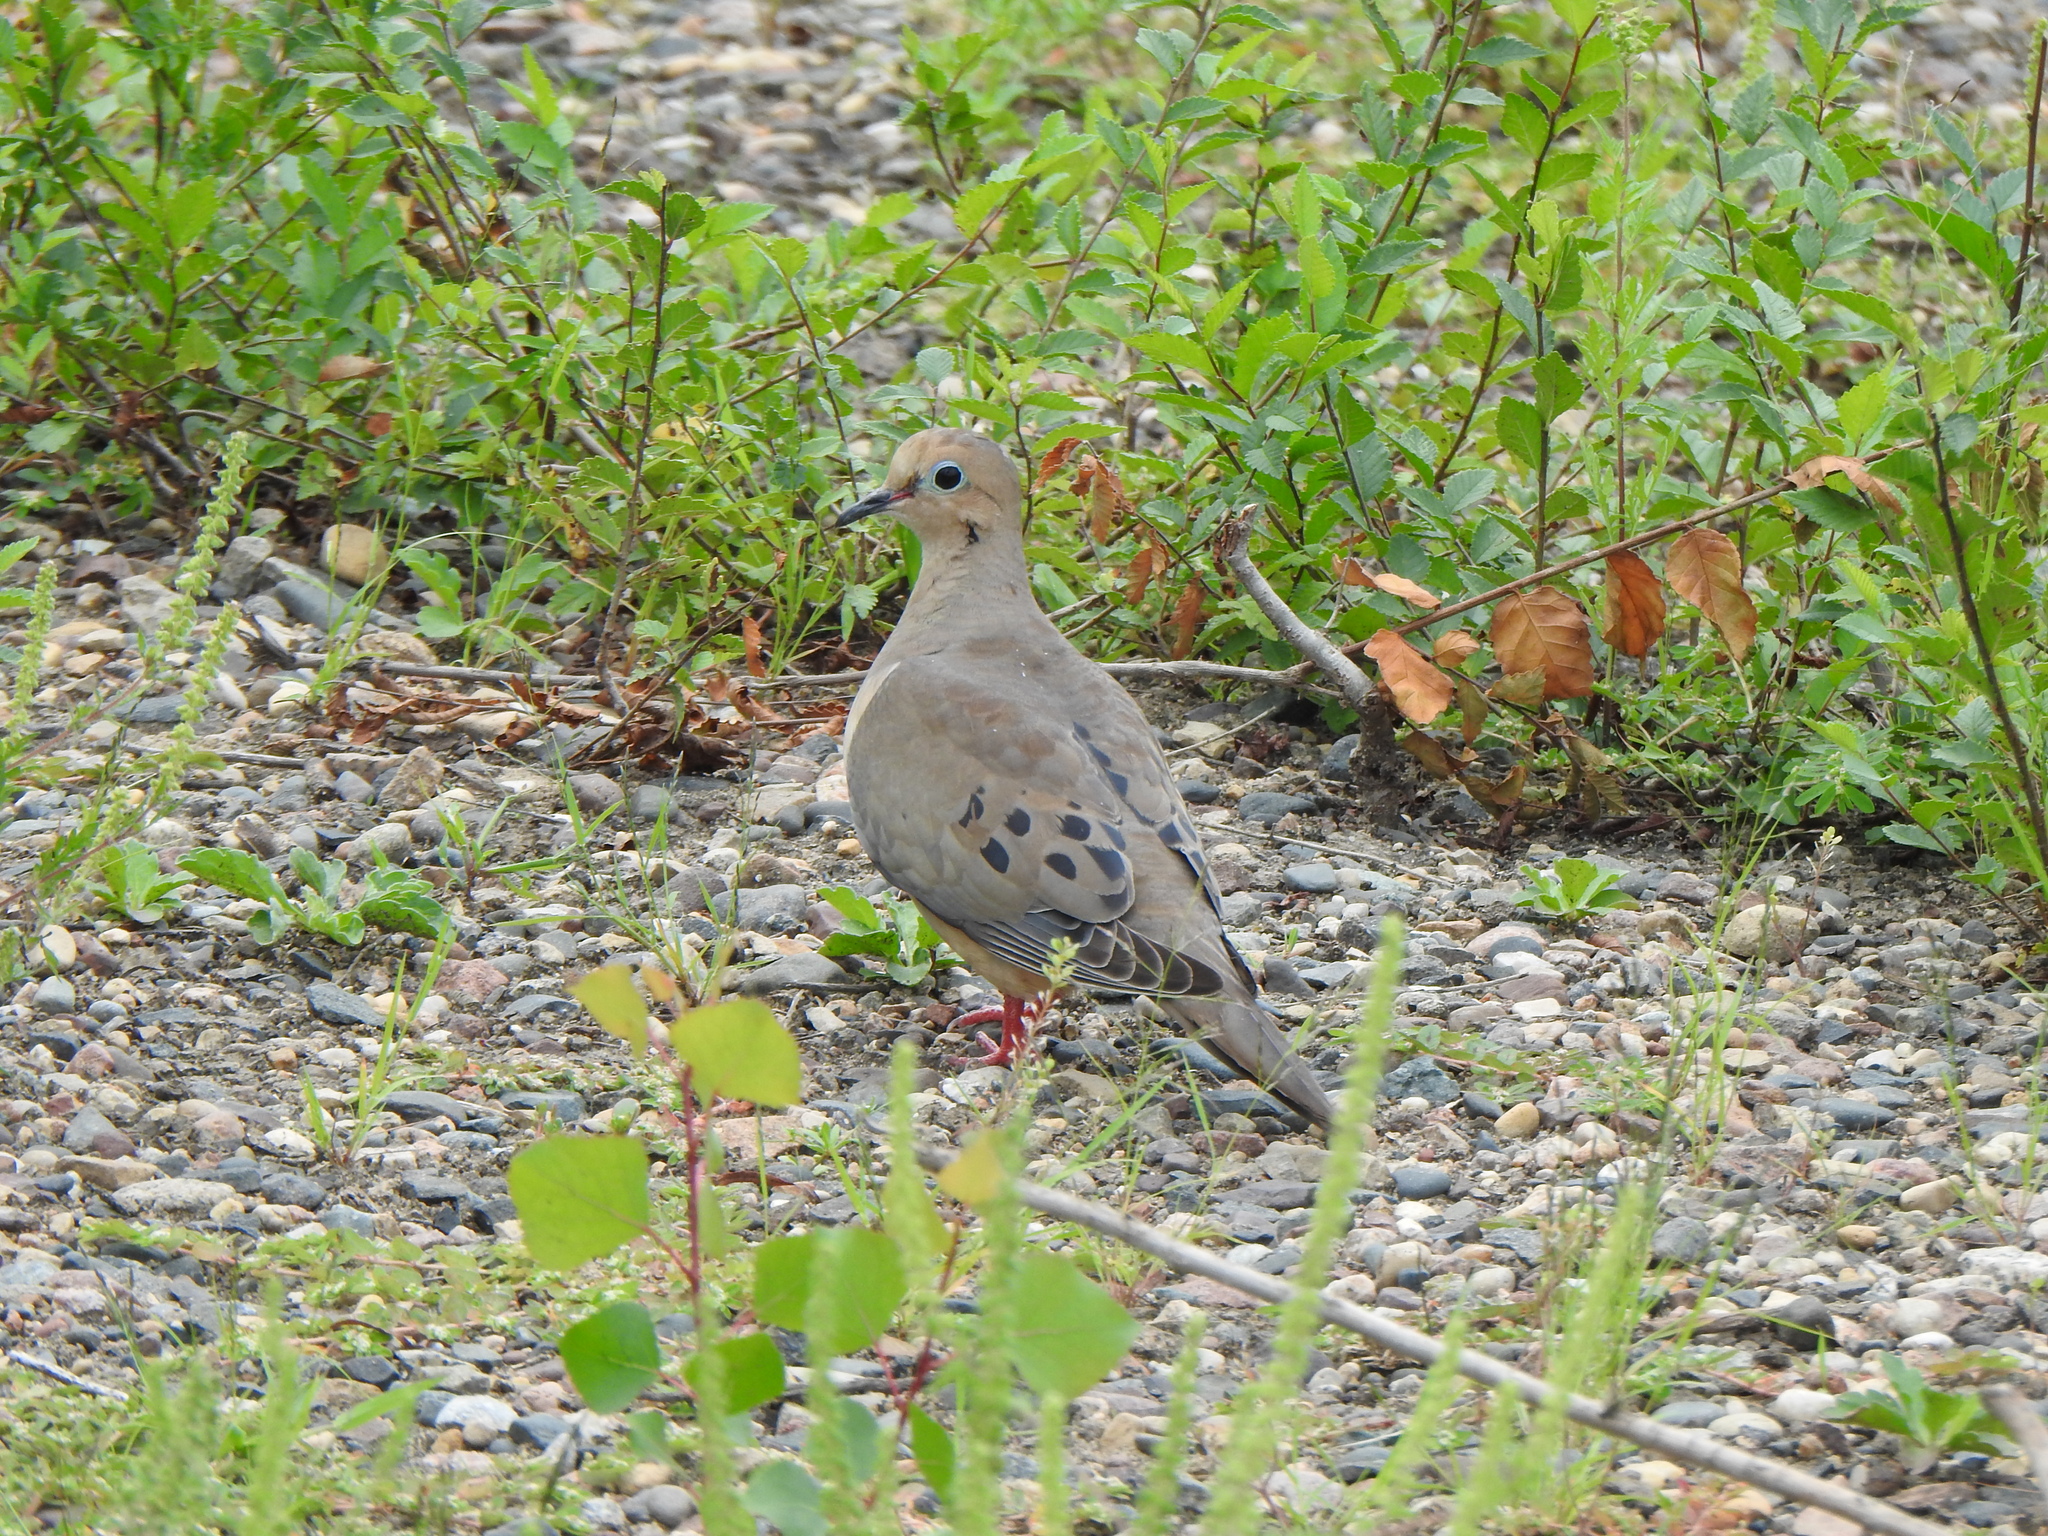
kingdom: Animalia
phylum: Chordata
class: Aves
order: Columbiformes
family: Columbidae
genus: Zenaida
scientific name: Zenaida macroura
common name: Mourning dove
